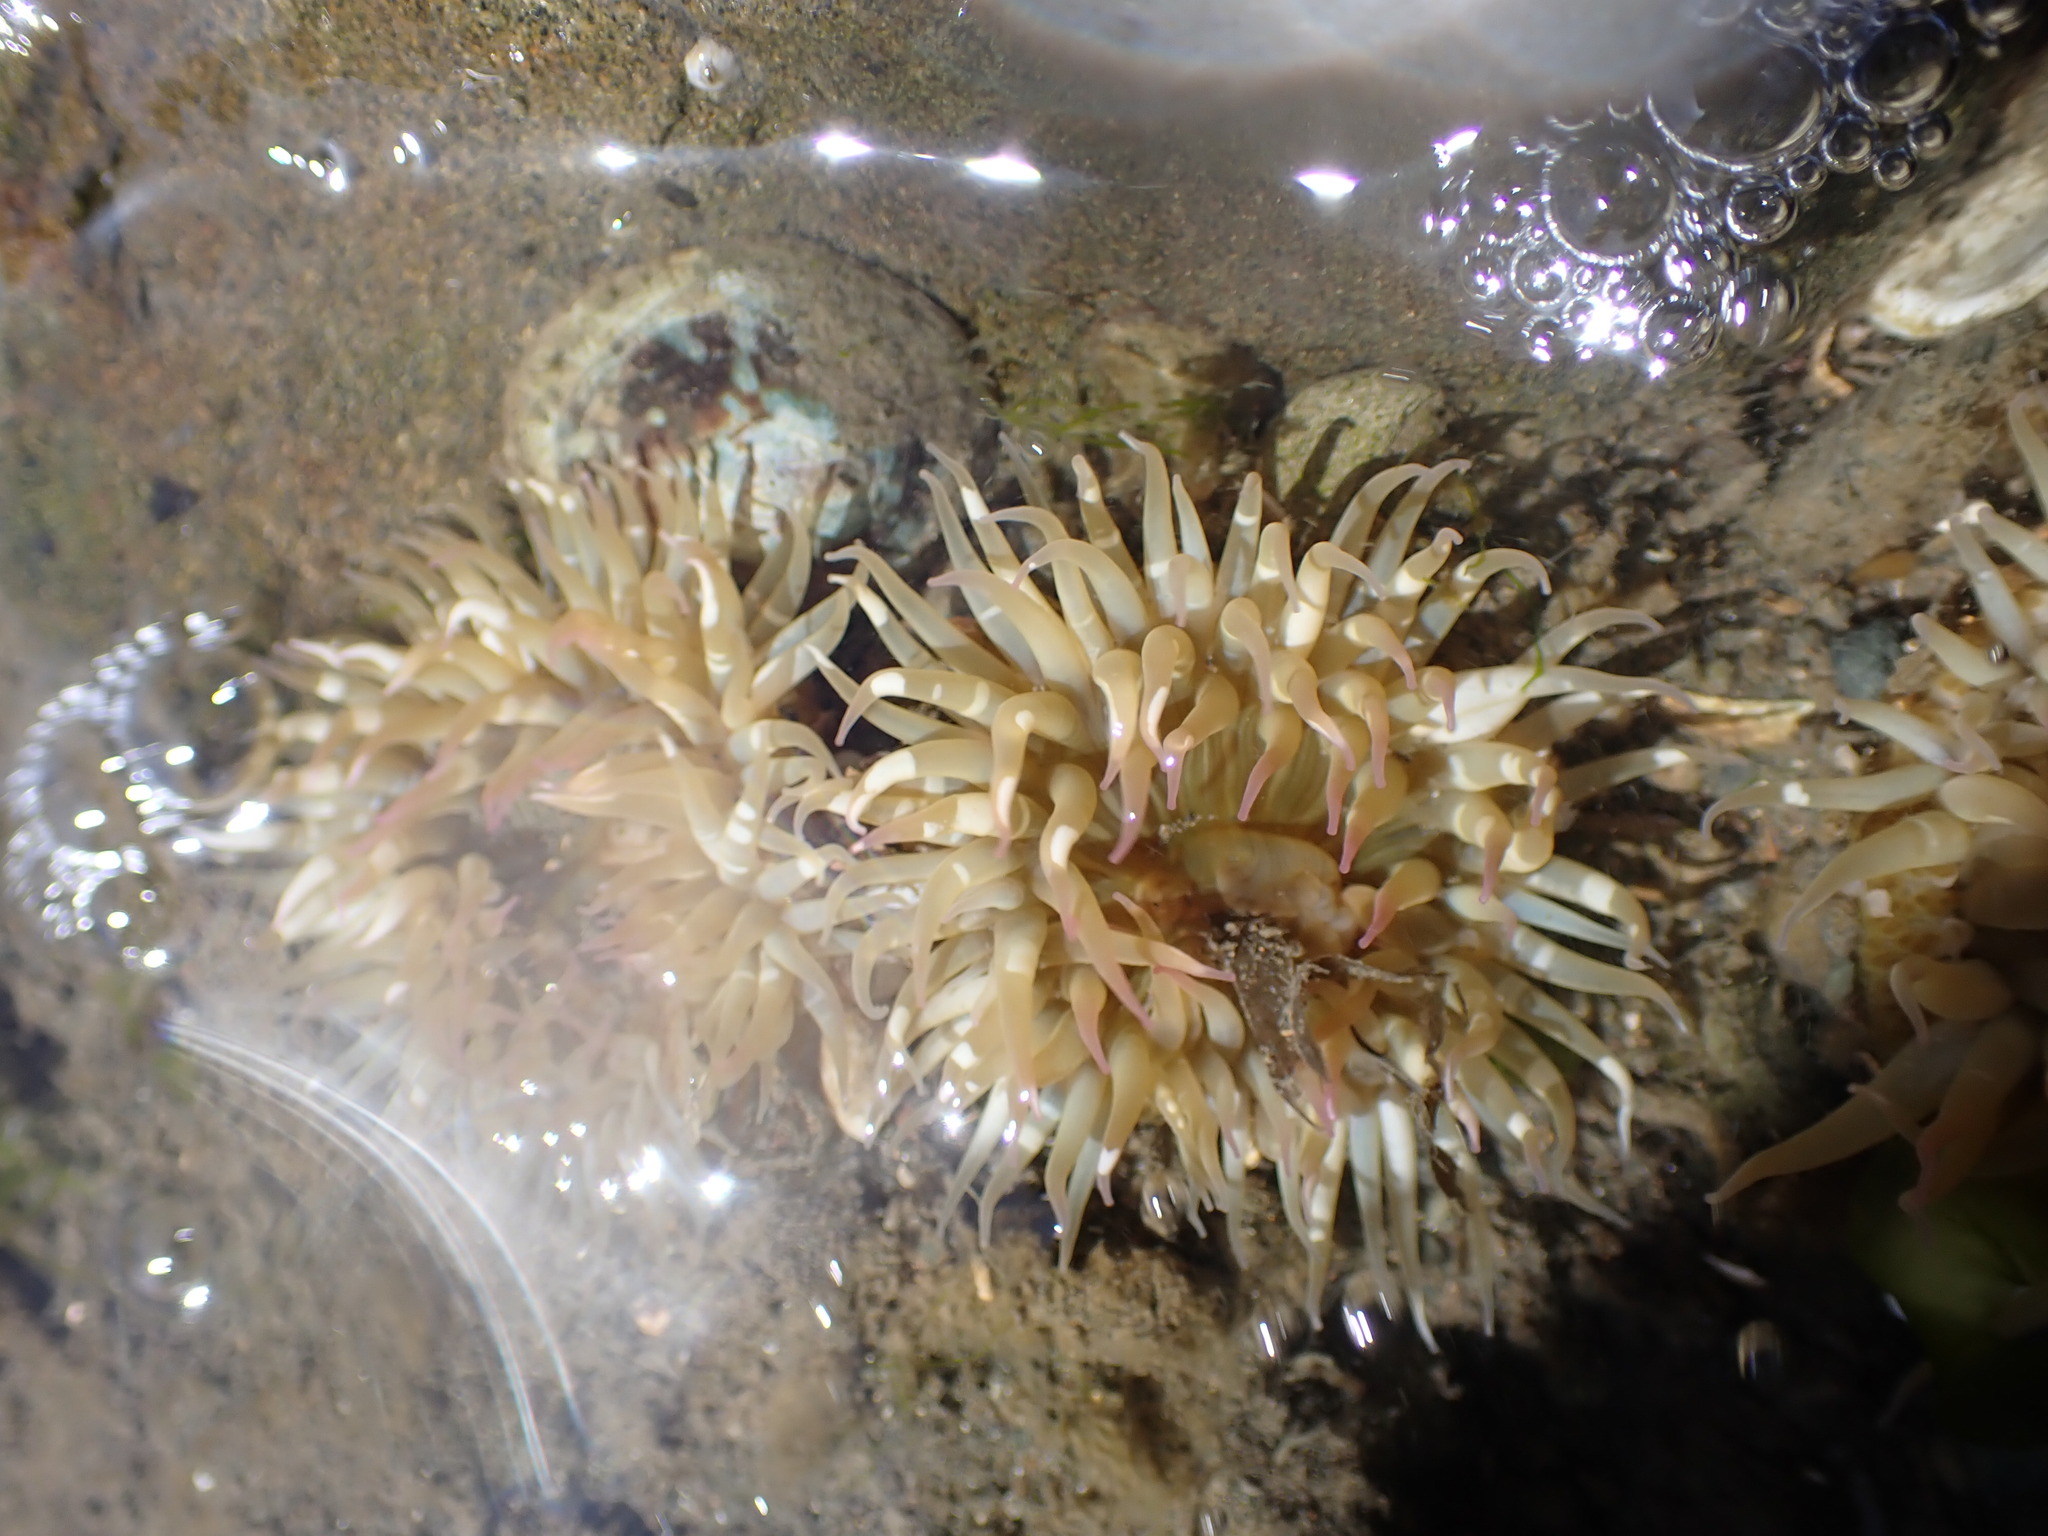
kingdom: Animalia
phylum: Cnidaria
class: Anthozoa
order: Actiniaria
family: Actiniidae
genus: Anthopleura
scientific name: Anthopleura elegantissima
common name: Clonal anemone
